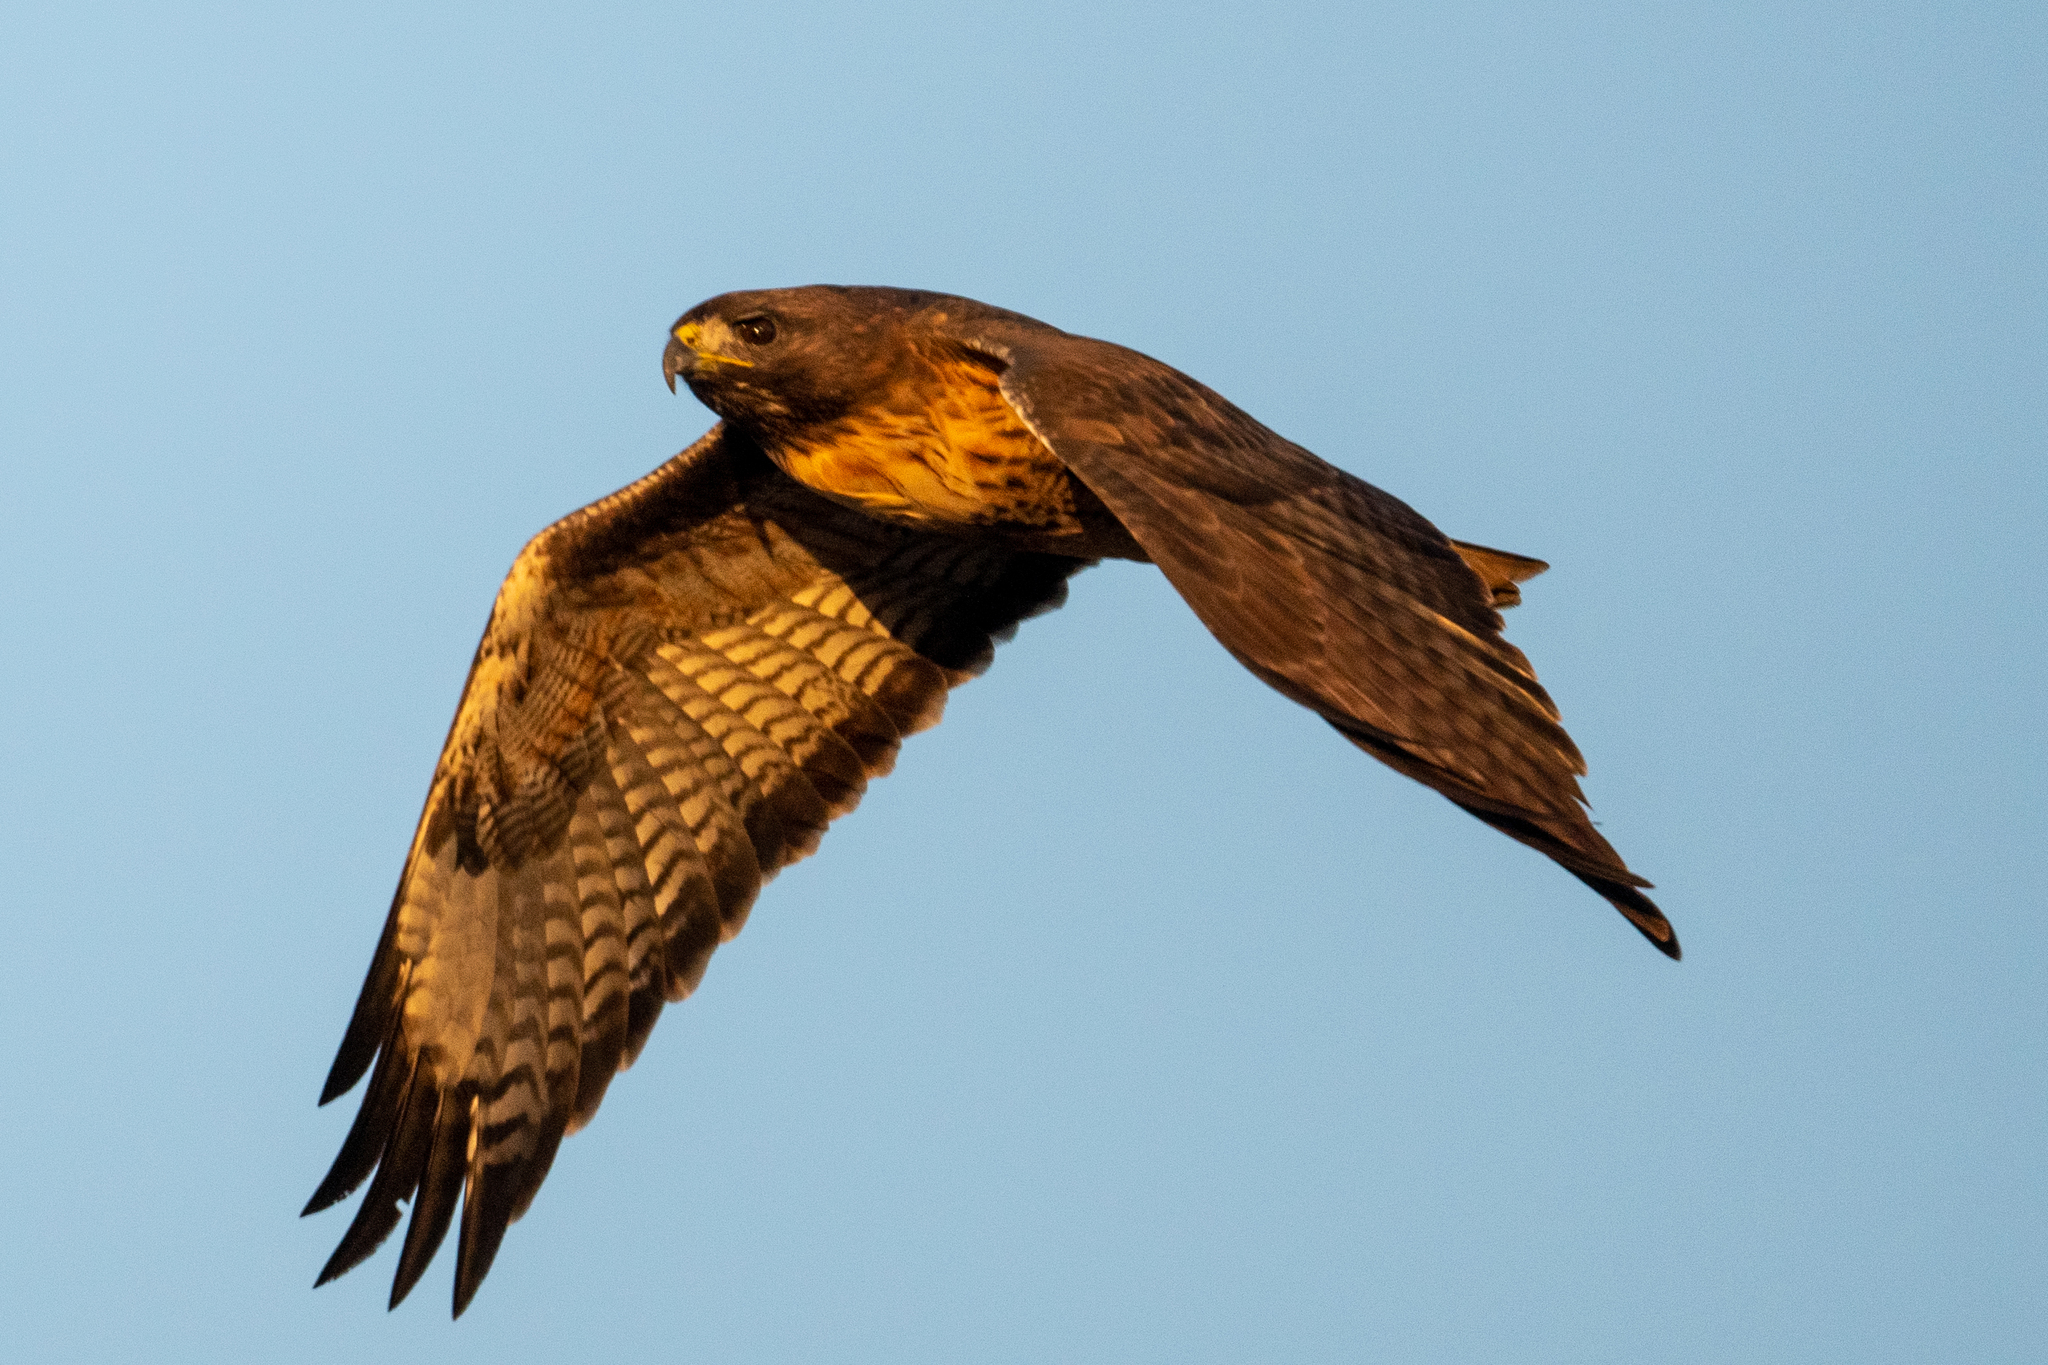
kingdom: Animalia
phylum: Chordata
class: Aves
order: Accipitriformes
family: Accipitridae
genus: Buteo
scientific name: Buteo jamaicensis
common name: Red-tailed hawk
